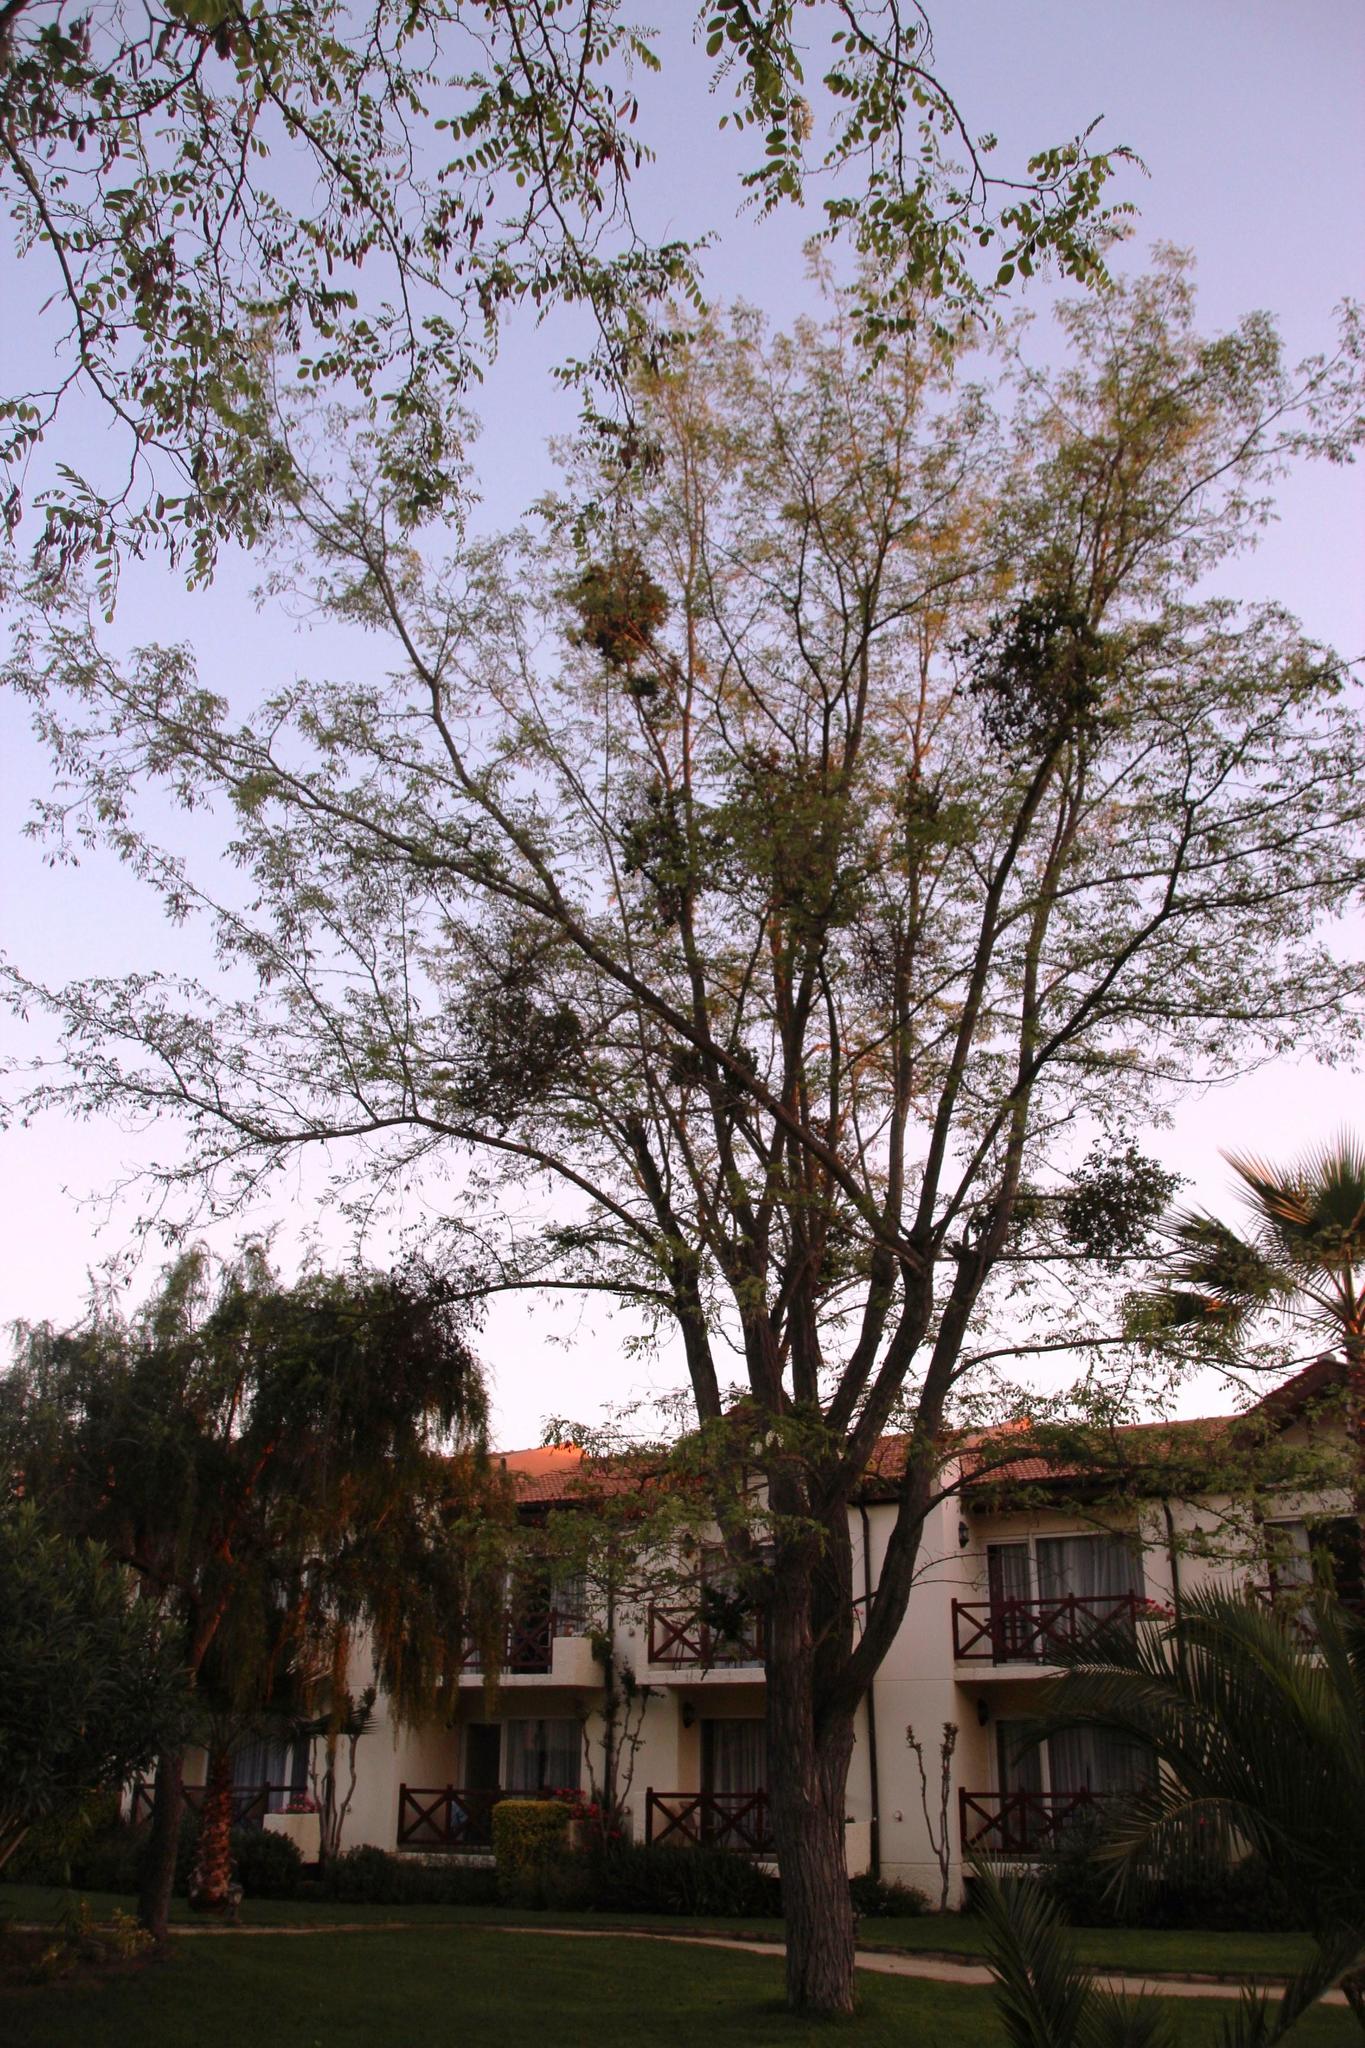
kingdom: Plantae
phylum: Tracheophyta
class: Magnoliopsida
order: Fabales
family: Fabaceae
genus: Robinia
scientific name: Robinia pseudoacacia
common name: Black locust
